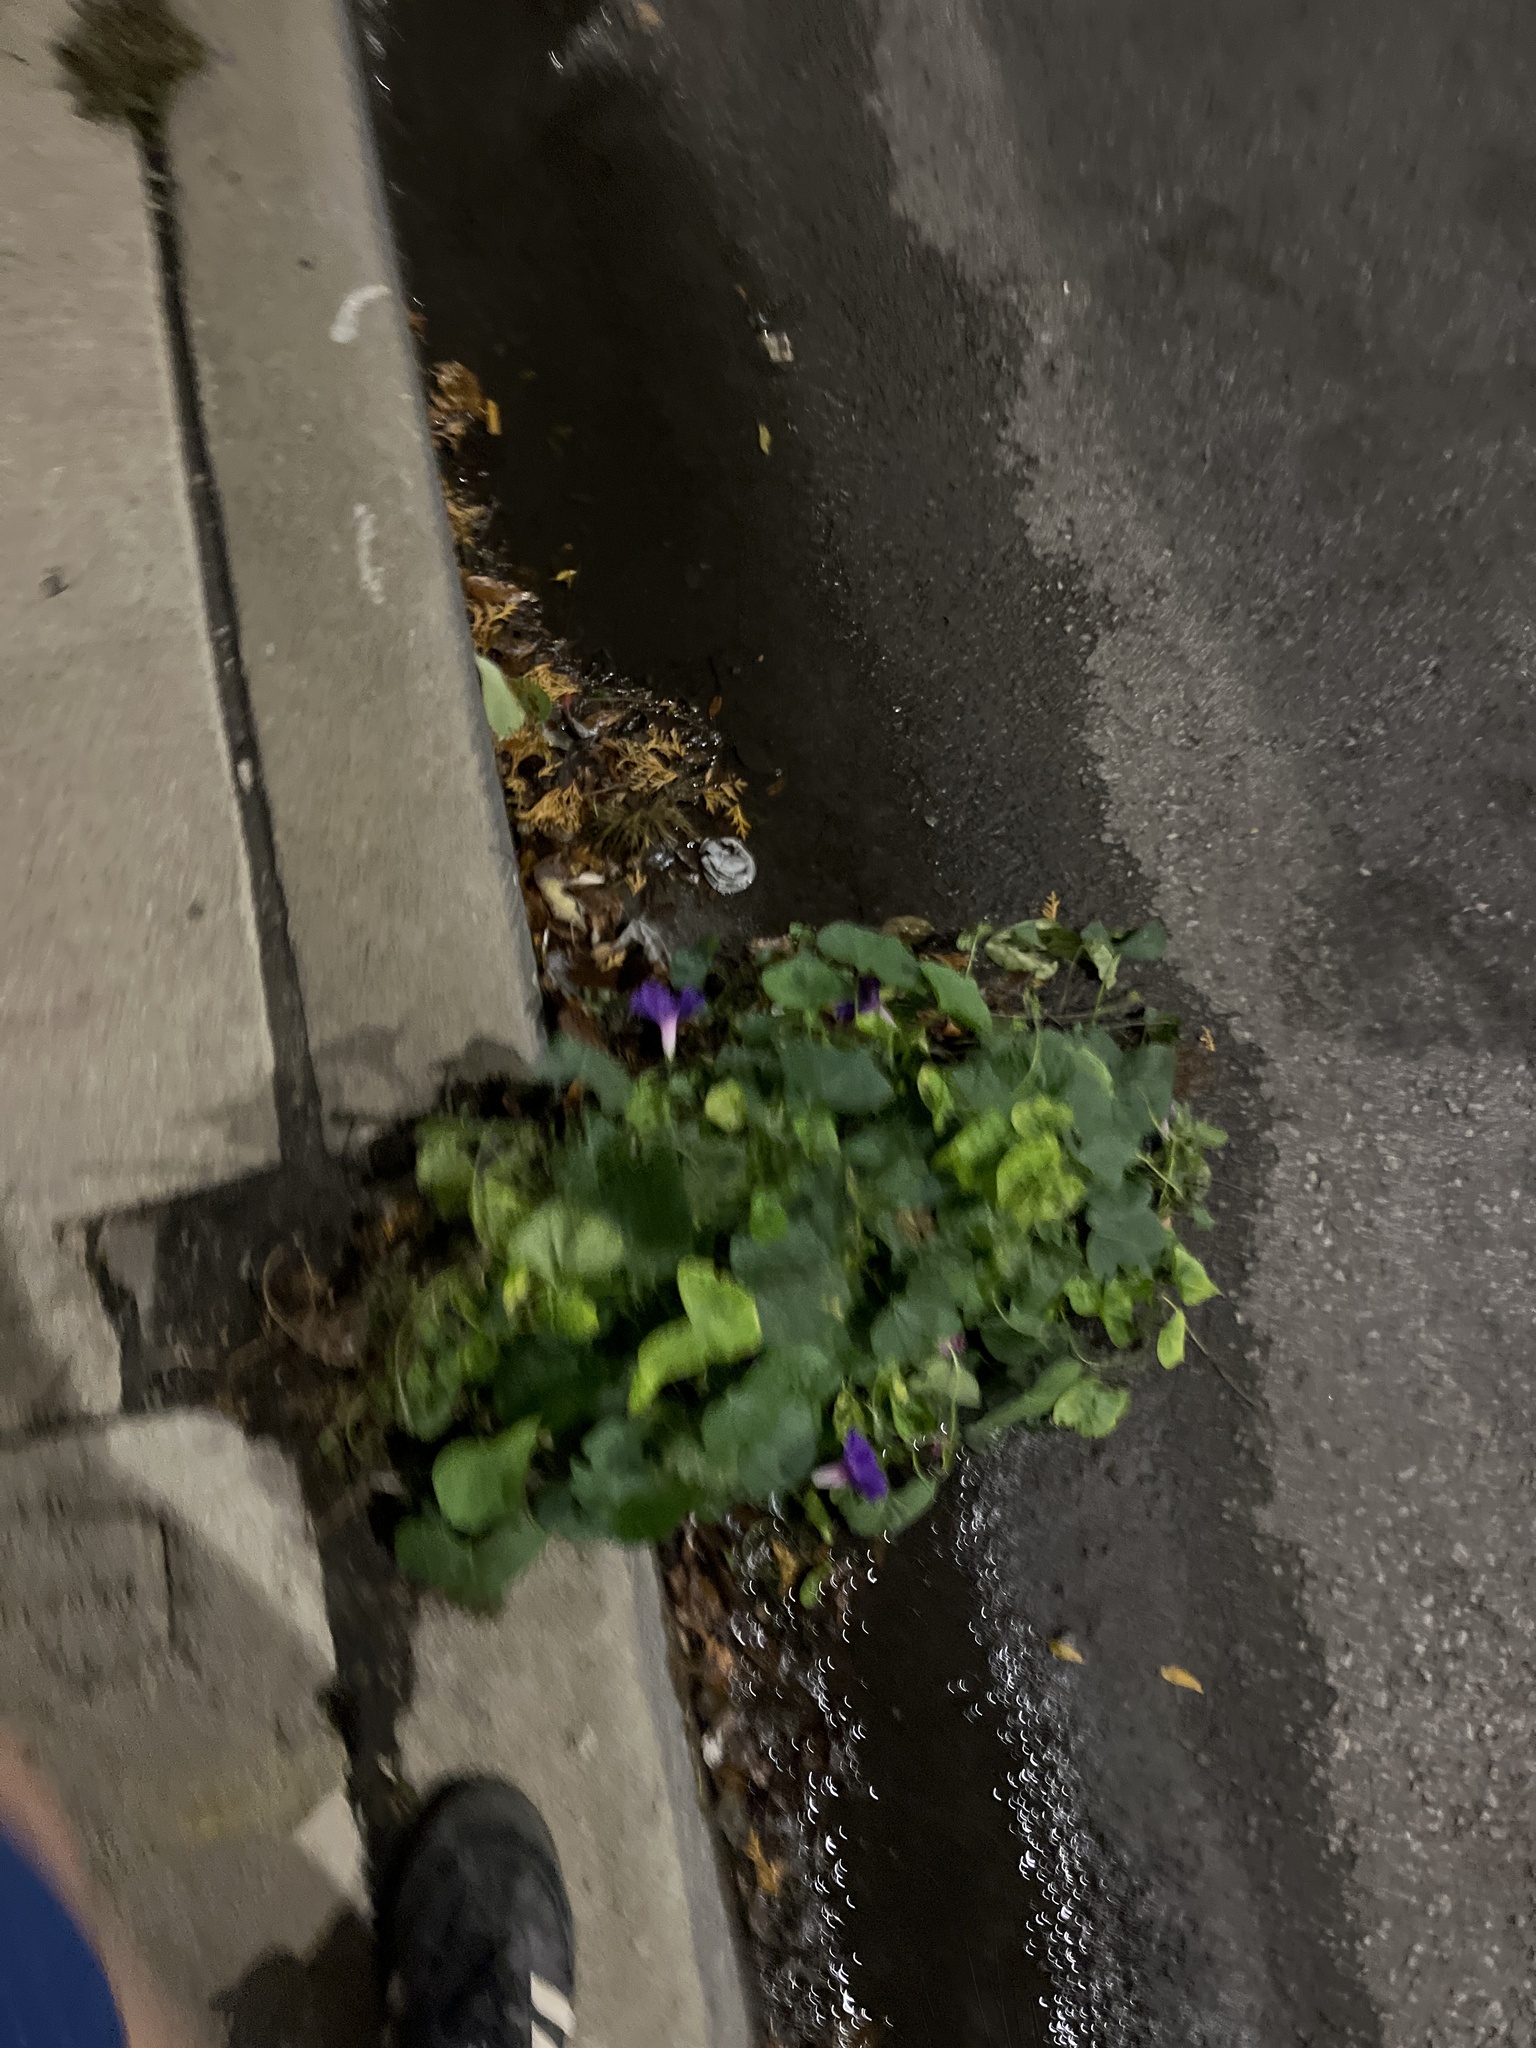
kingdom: Plantae
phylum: Tracheophyta
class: Magnoliopsida
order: Solanales
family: Convolvulaceae
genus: Ipomoea
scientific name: Ipomoea purpurea
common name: Common morning-glory
